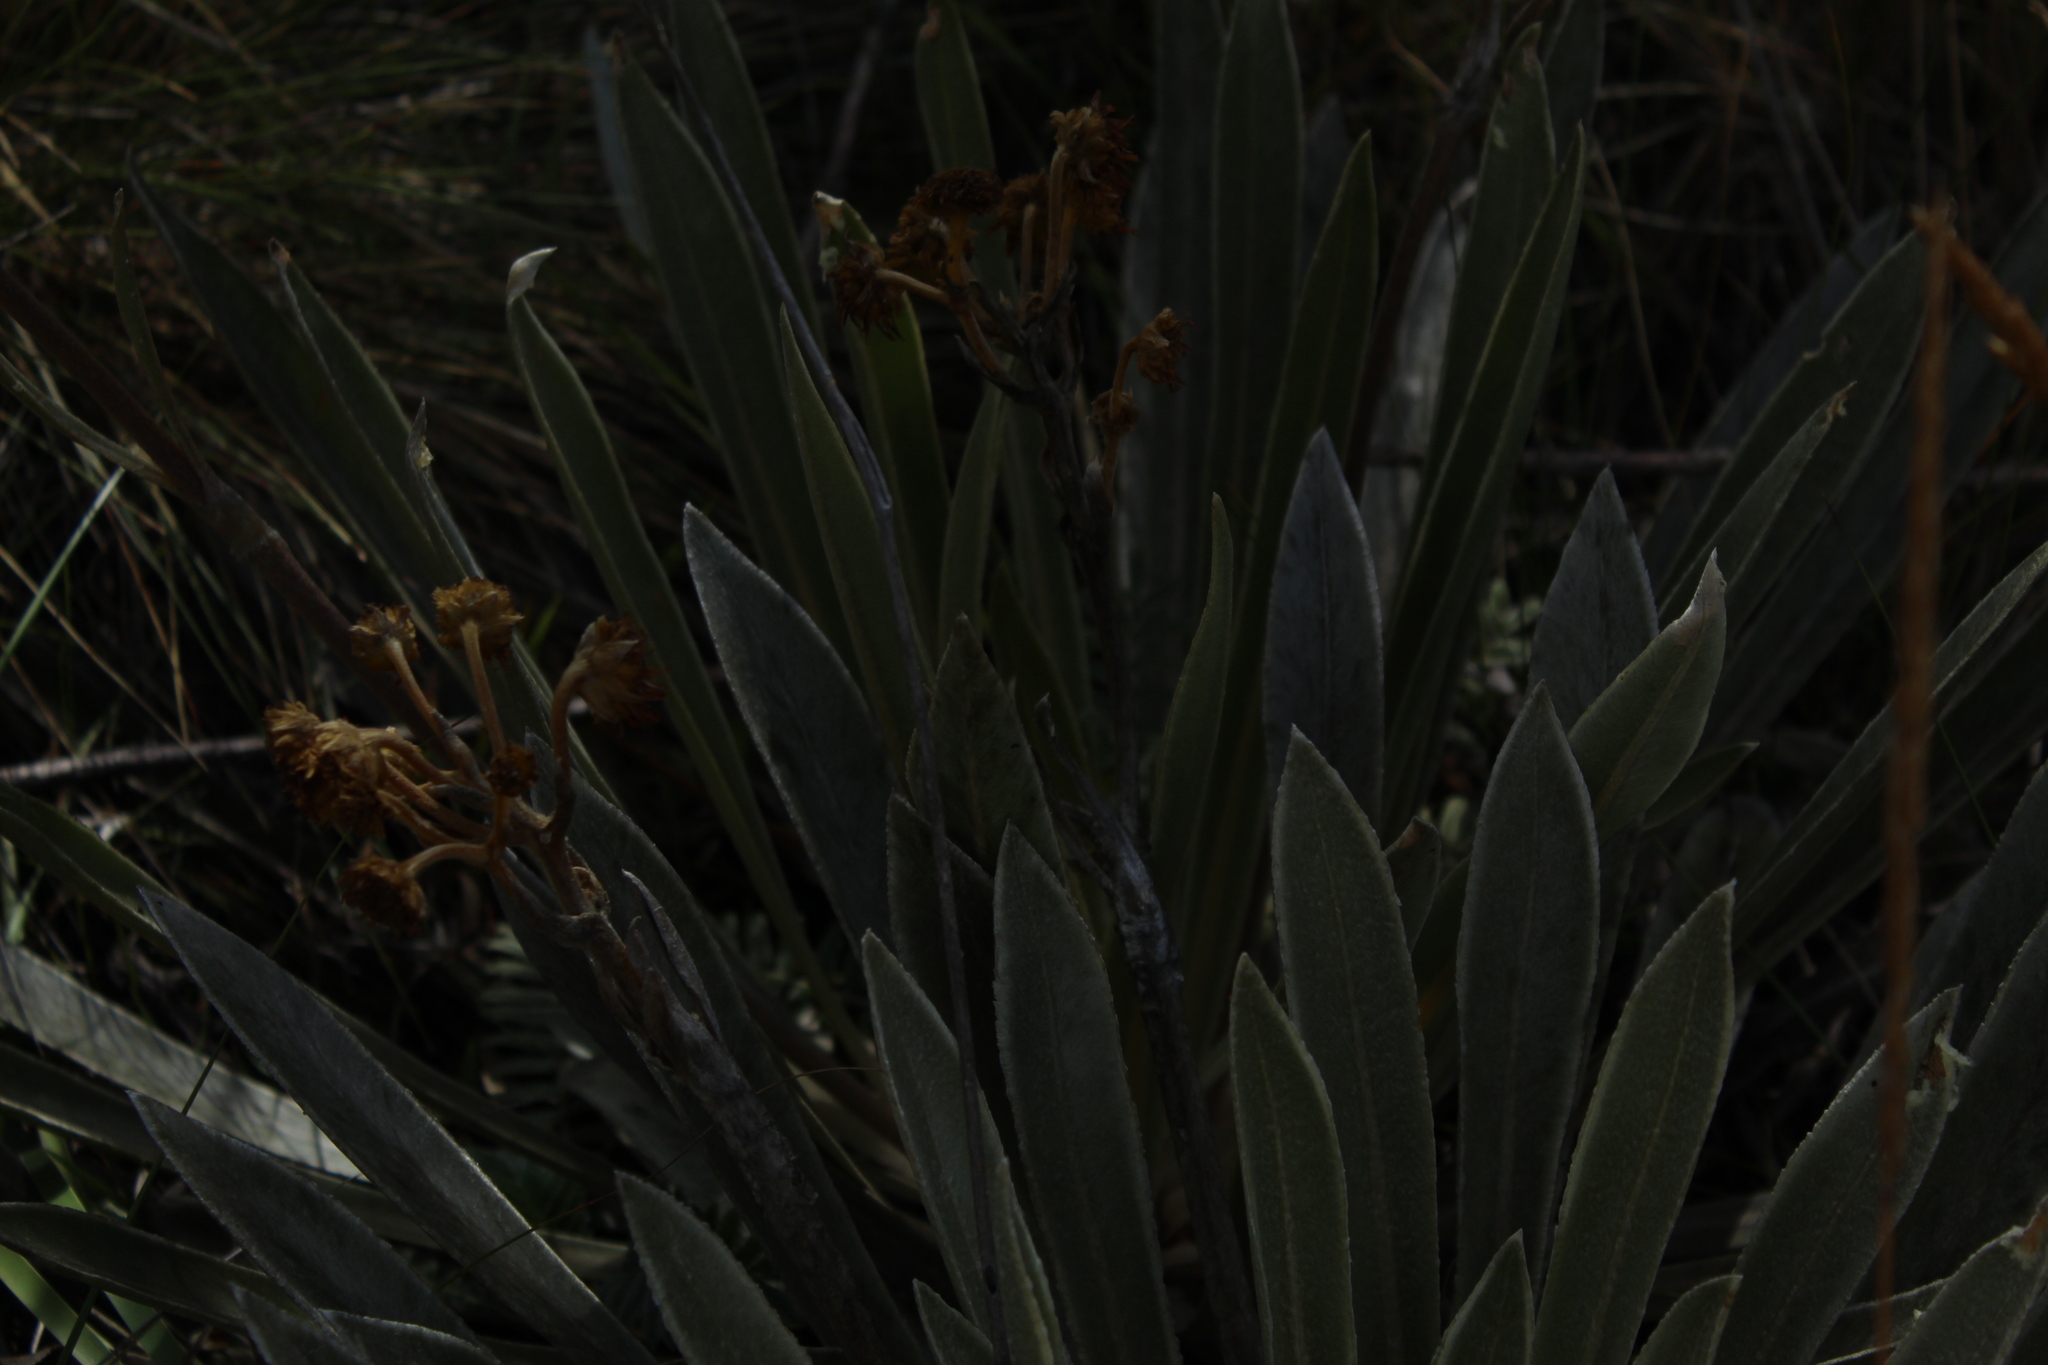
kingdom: Plantae
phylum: Tracheophyta
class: Magnoliopsida
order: Asterales
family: Asteraceae
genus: Espeletia
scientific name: Espeletia boyacensis
